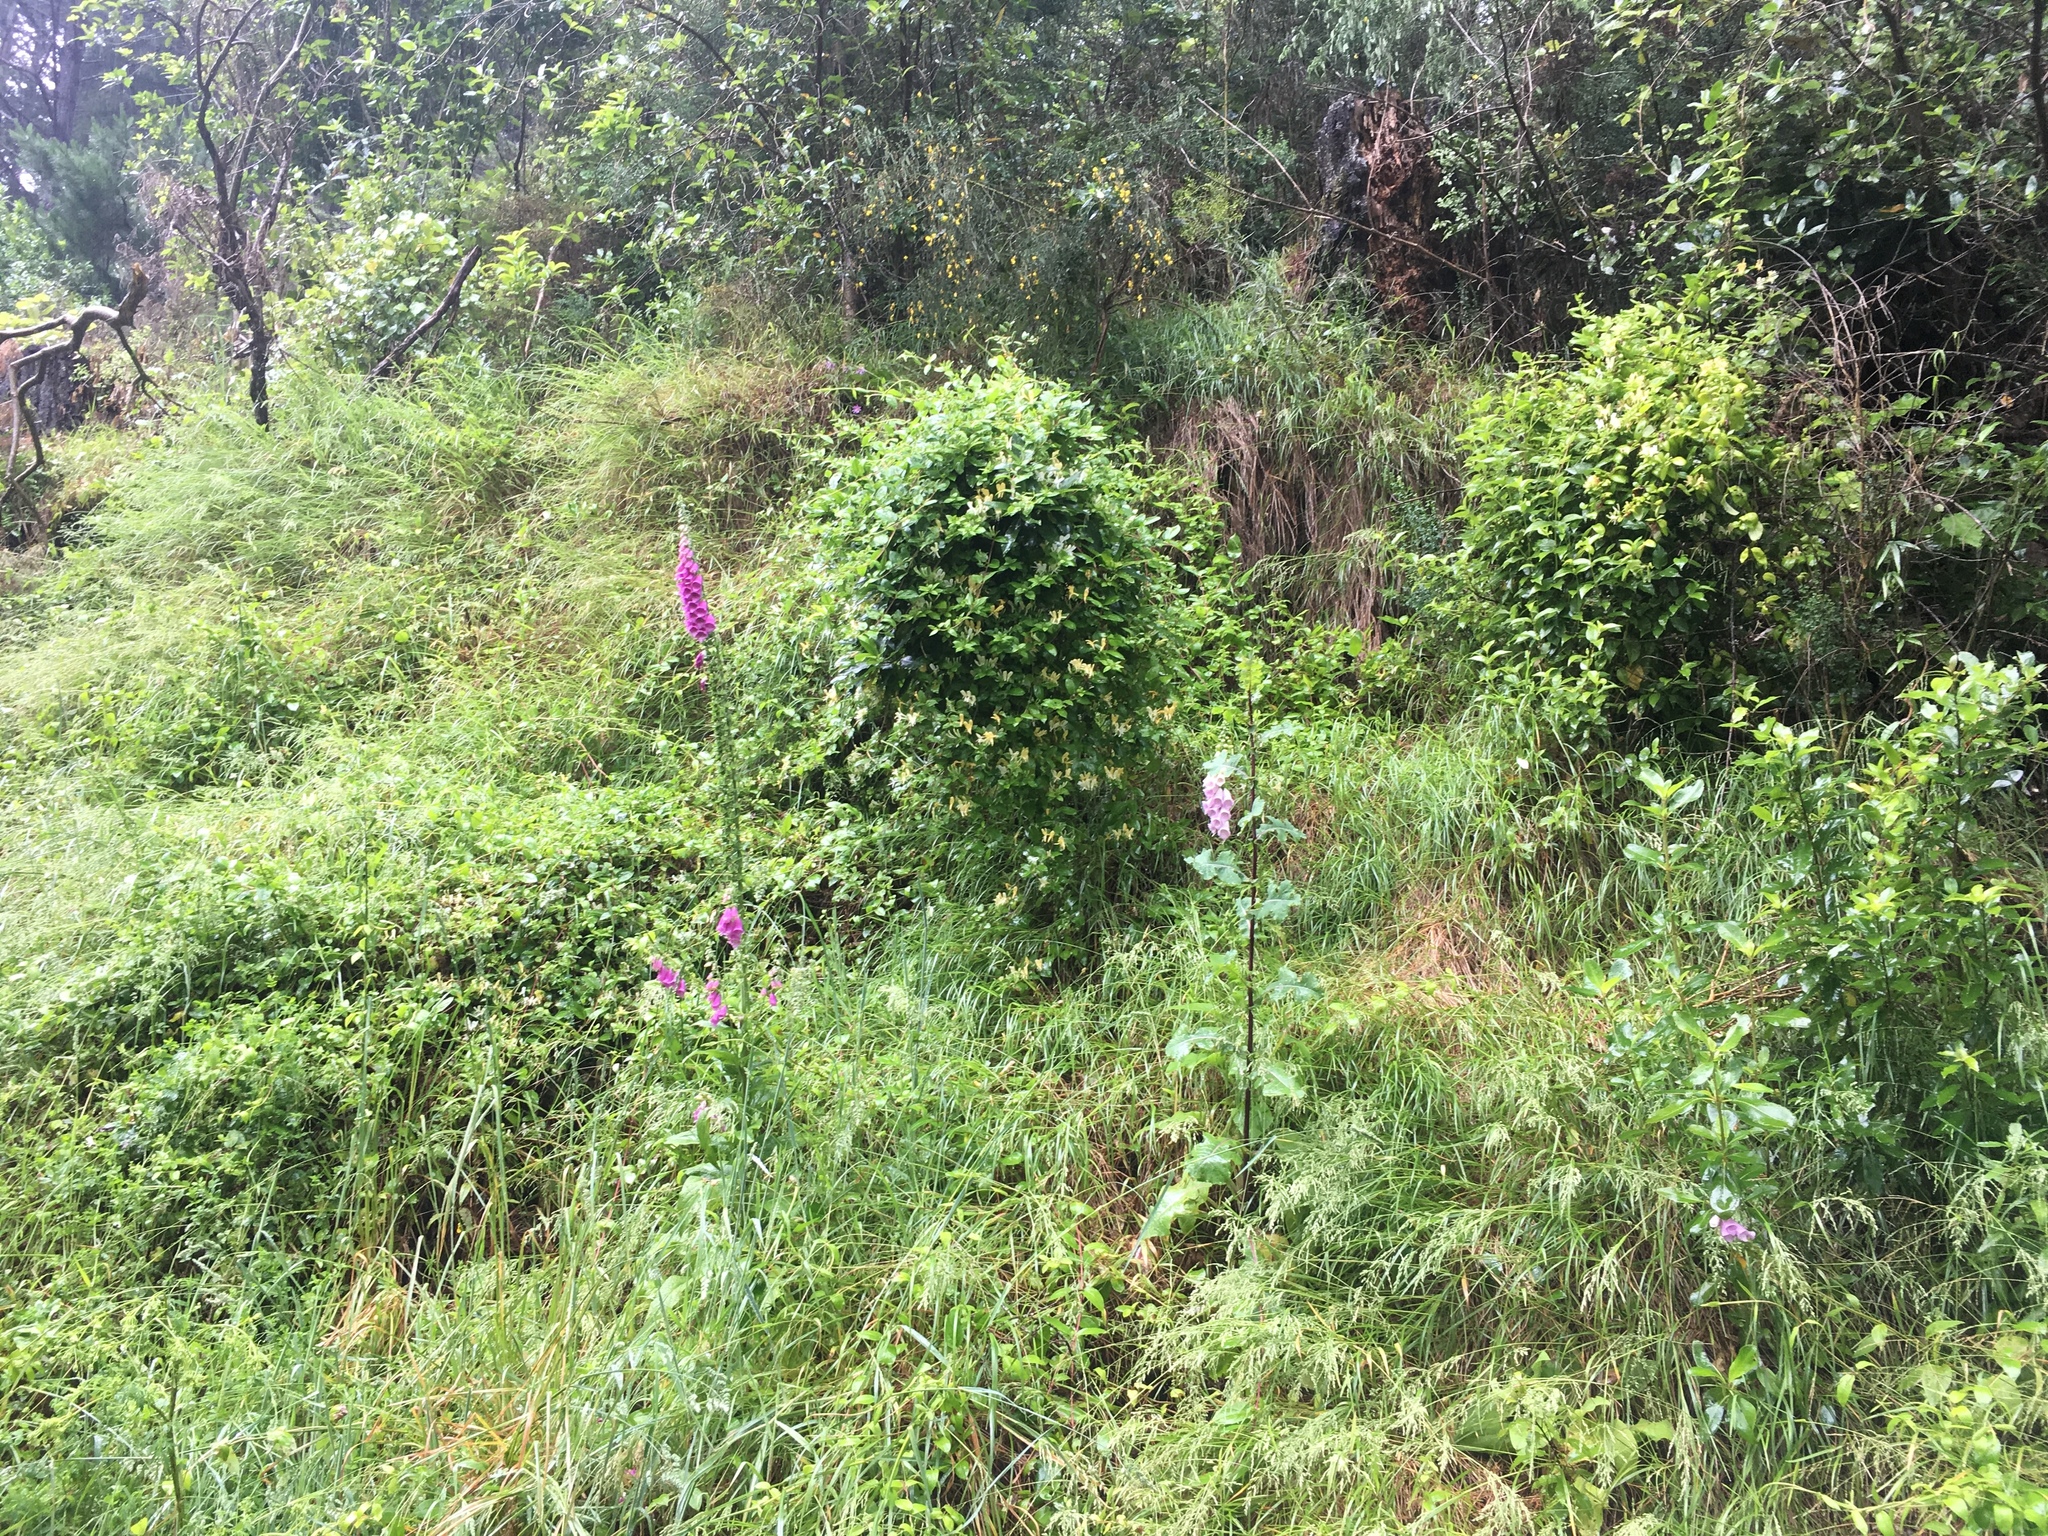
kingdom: Plantae
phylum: Tracheophyta
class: Magnoliopsida
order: Dipsacales
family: Caprifoliaceae
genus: Lonicera
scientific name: Lonicera japonica
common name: Japanese honeysuckle
